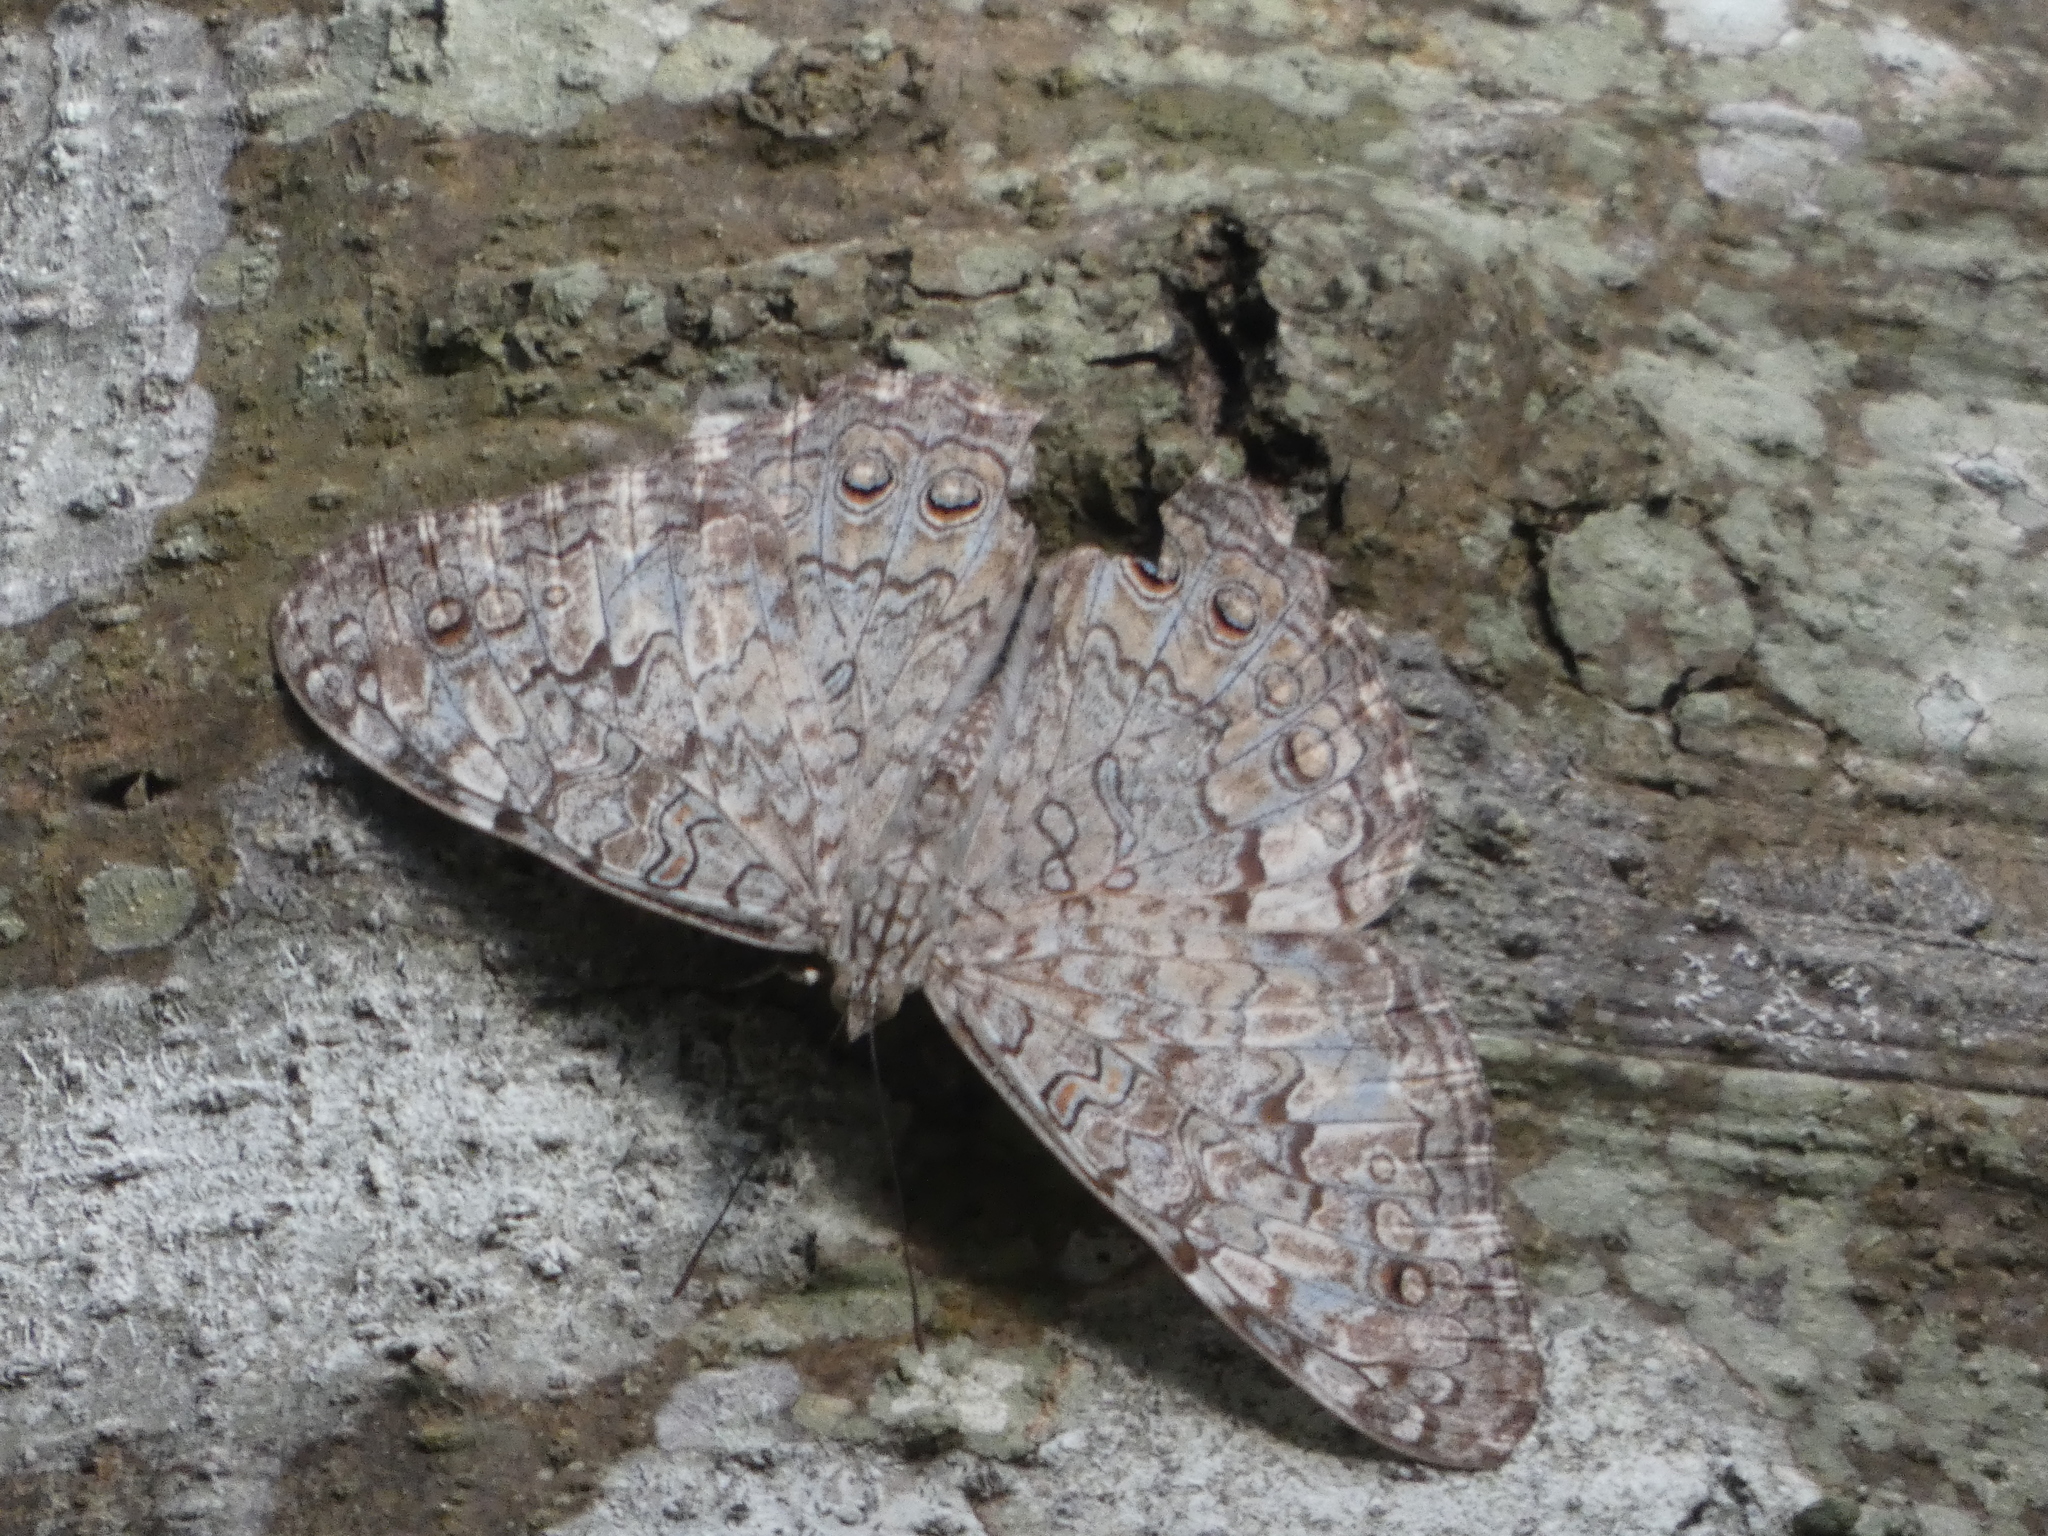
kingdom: Animalia
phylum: Arthropoda
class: Insecta
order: Lepidoptera
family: Nymphalidae
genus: Hamadryas
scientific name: Hamadryas februa
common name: Gray cracker
